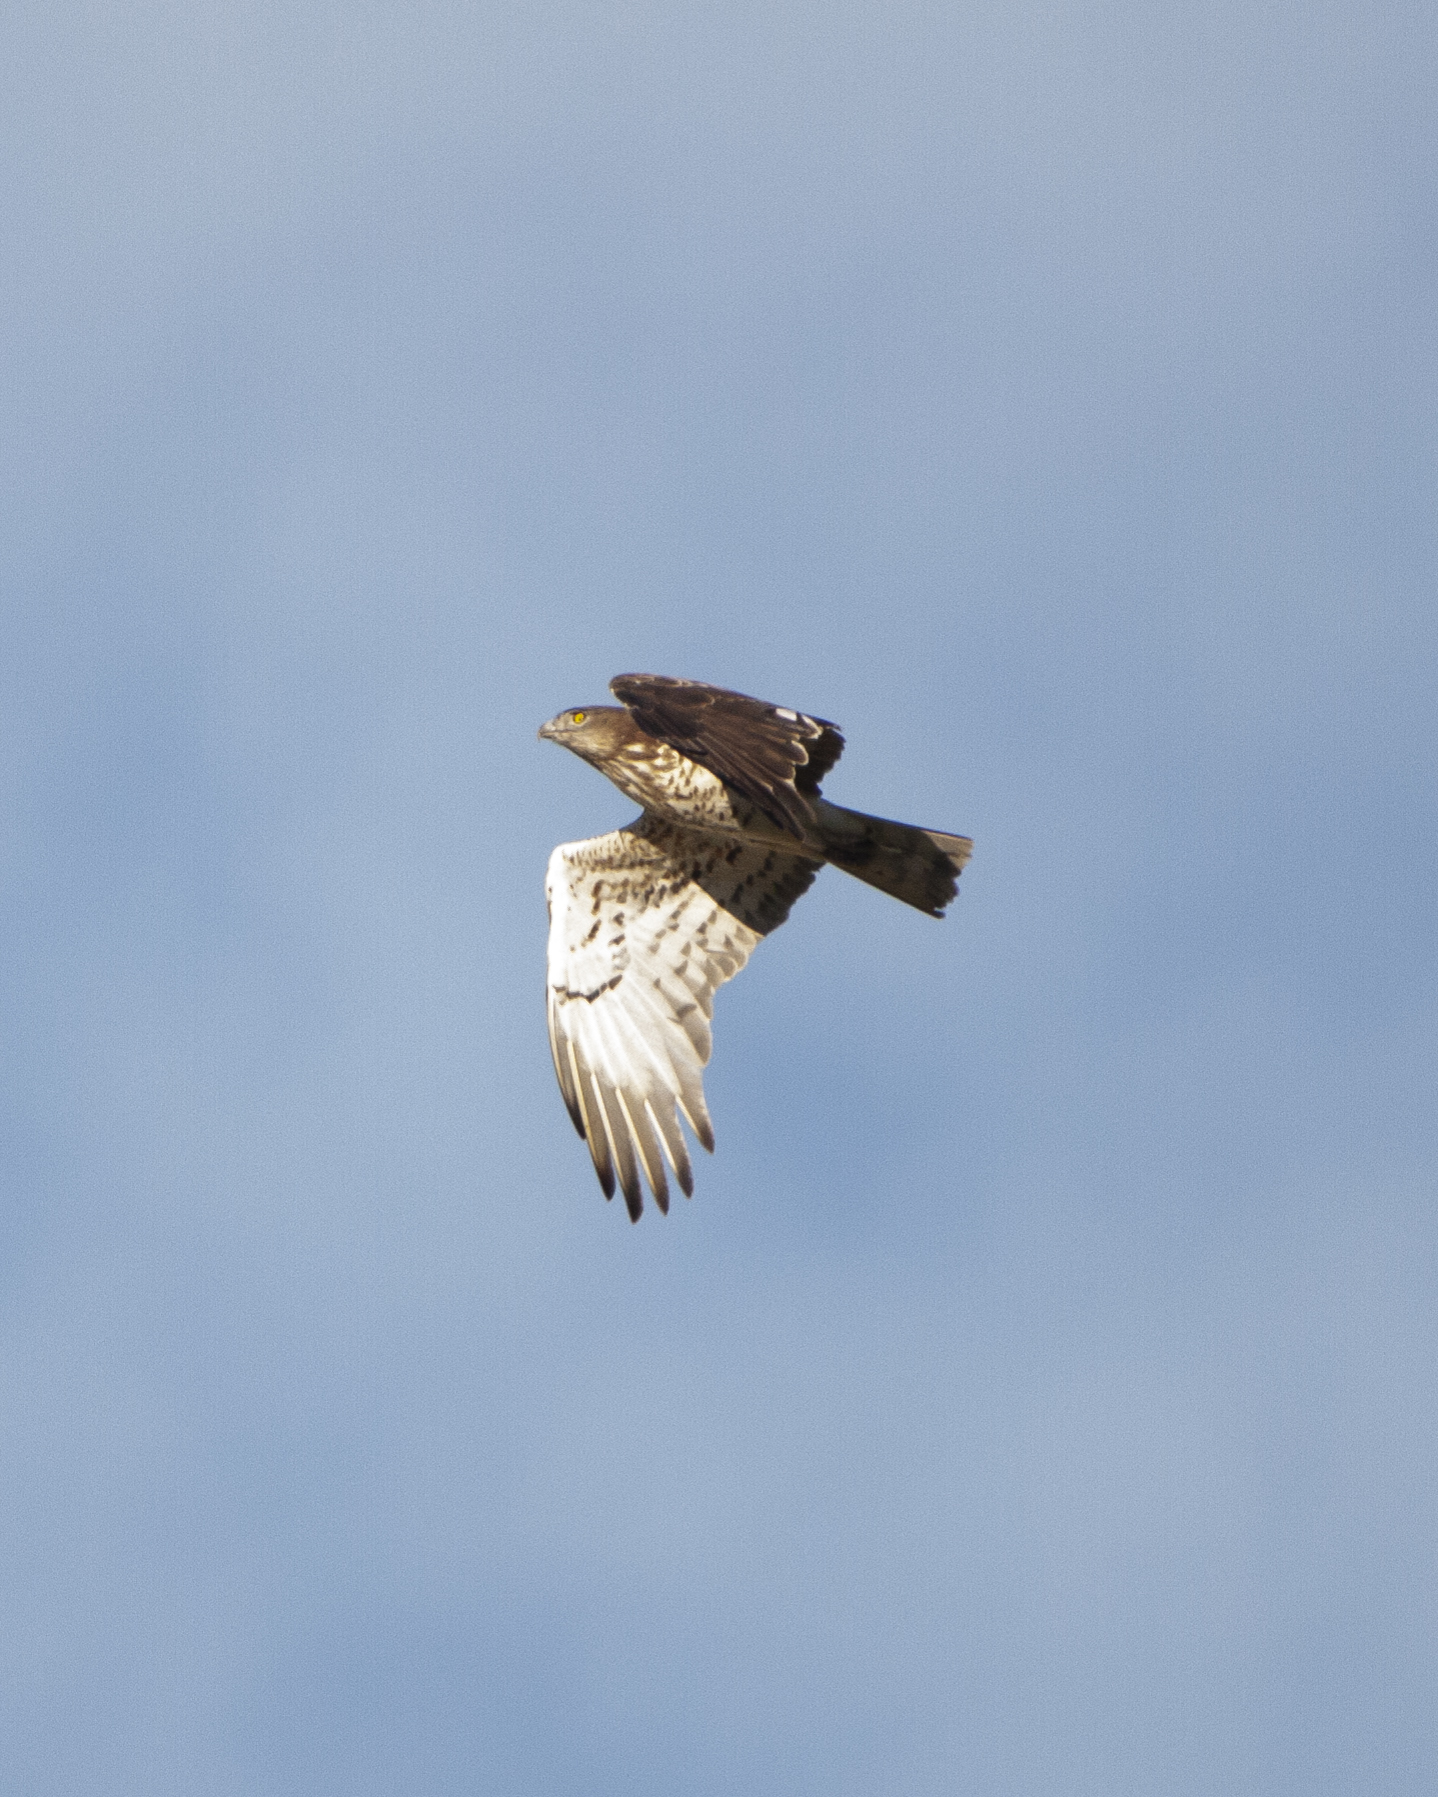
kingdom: Animalia
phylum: Chordata
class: Aves
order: Accipitriformes
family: Accipitridae
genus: Circaetus
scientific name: Circaetus gallicus
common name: Short-toed snake eagle
